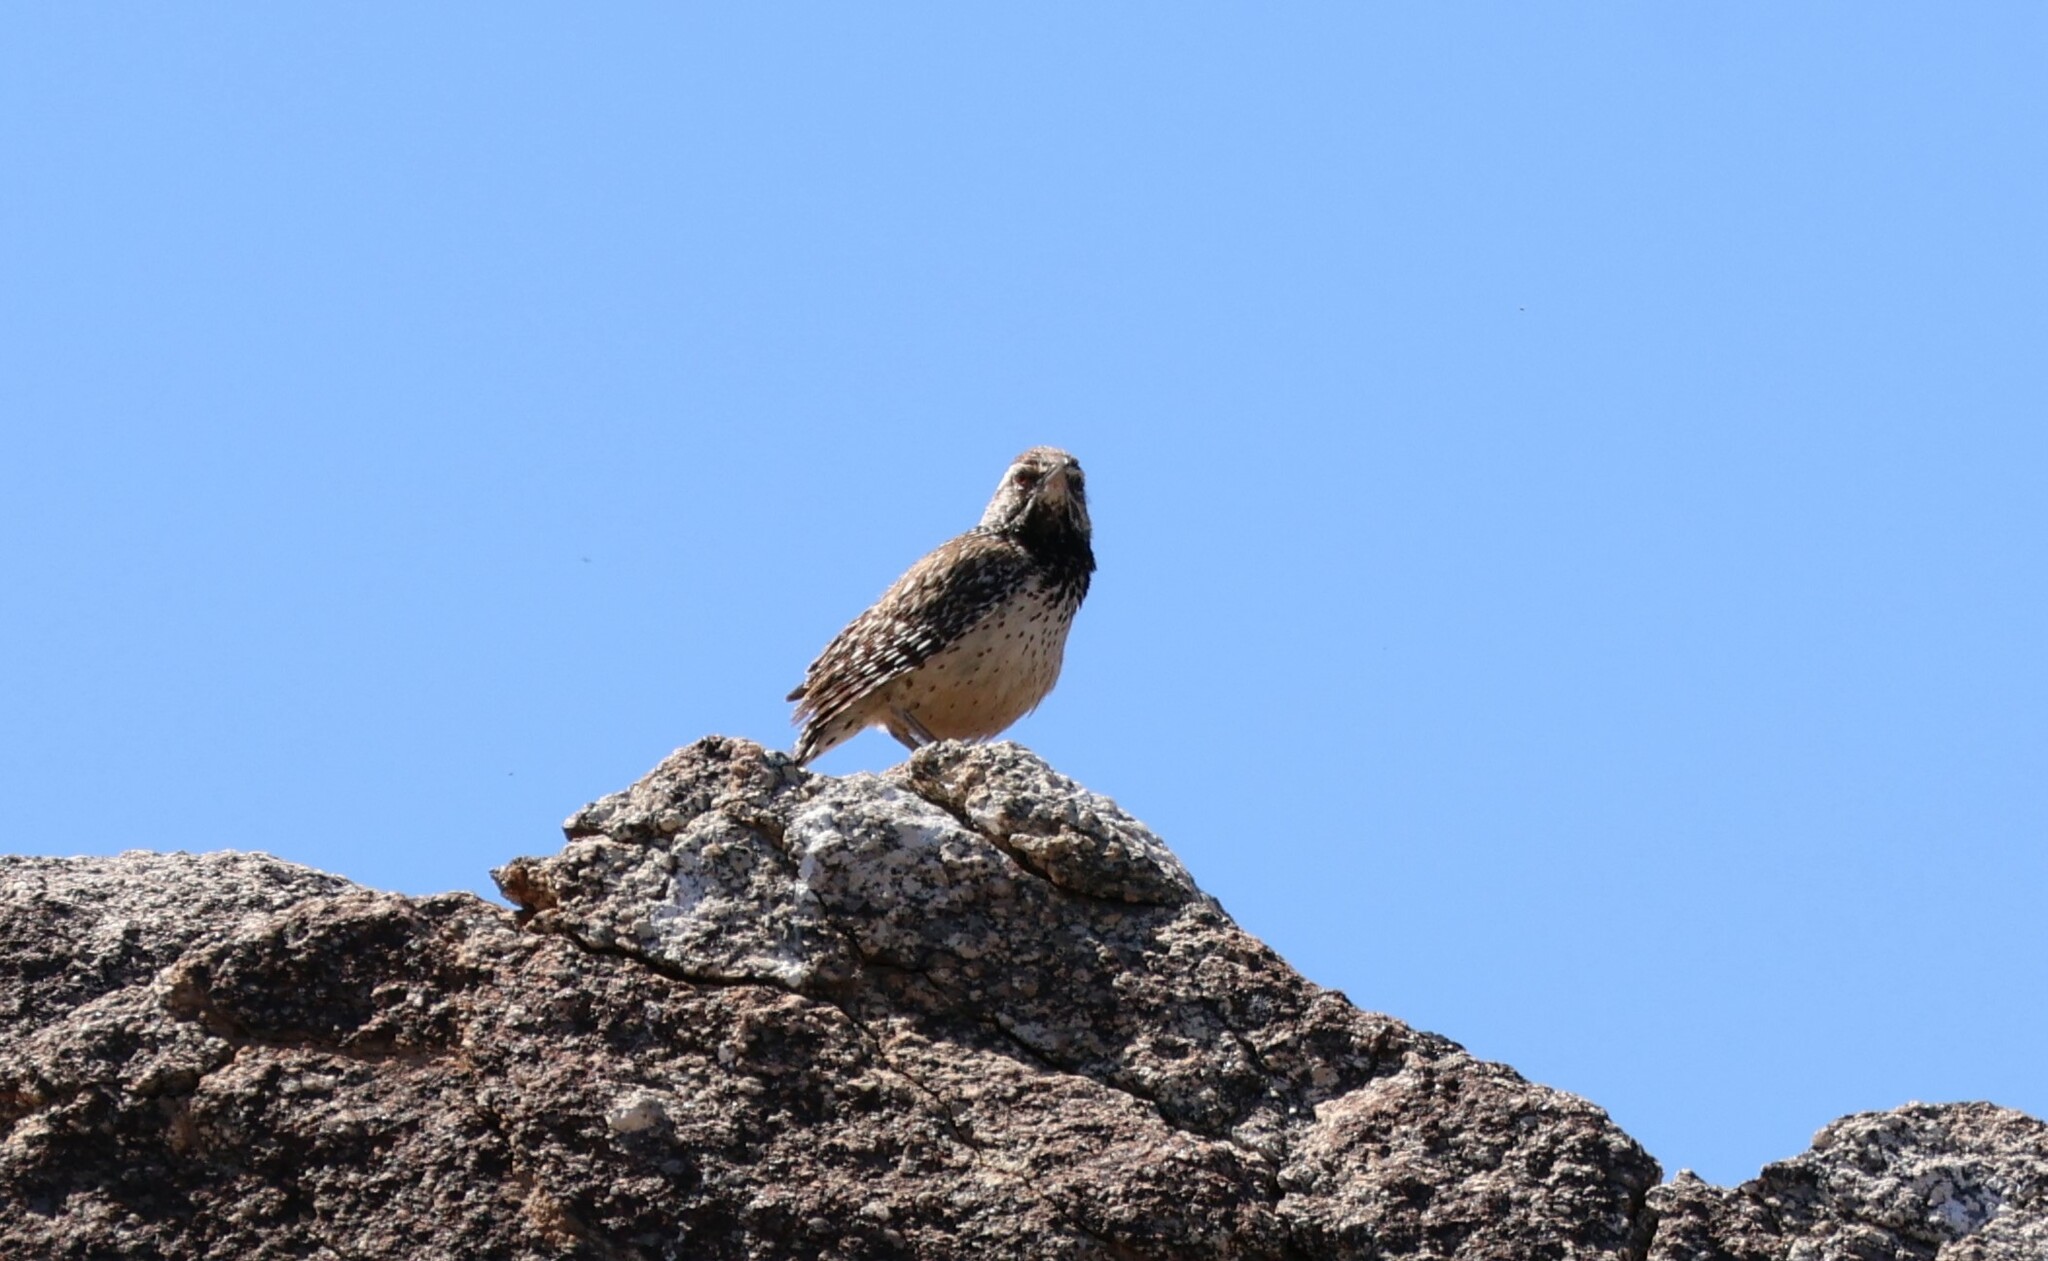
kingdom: Animalia
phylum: Chordata
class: Aves
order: Passeriformes
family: Troglodytidae
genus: Campylorhynchus
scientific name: Campylorhynchus brunneicapillus
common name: Cactus wren
